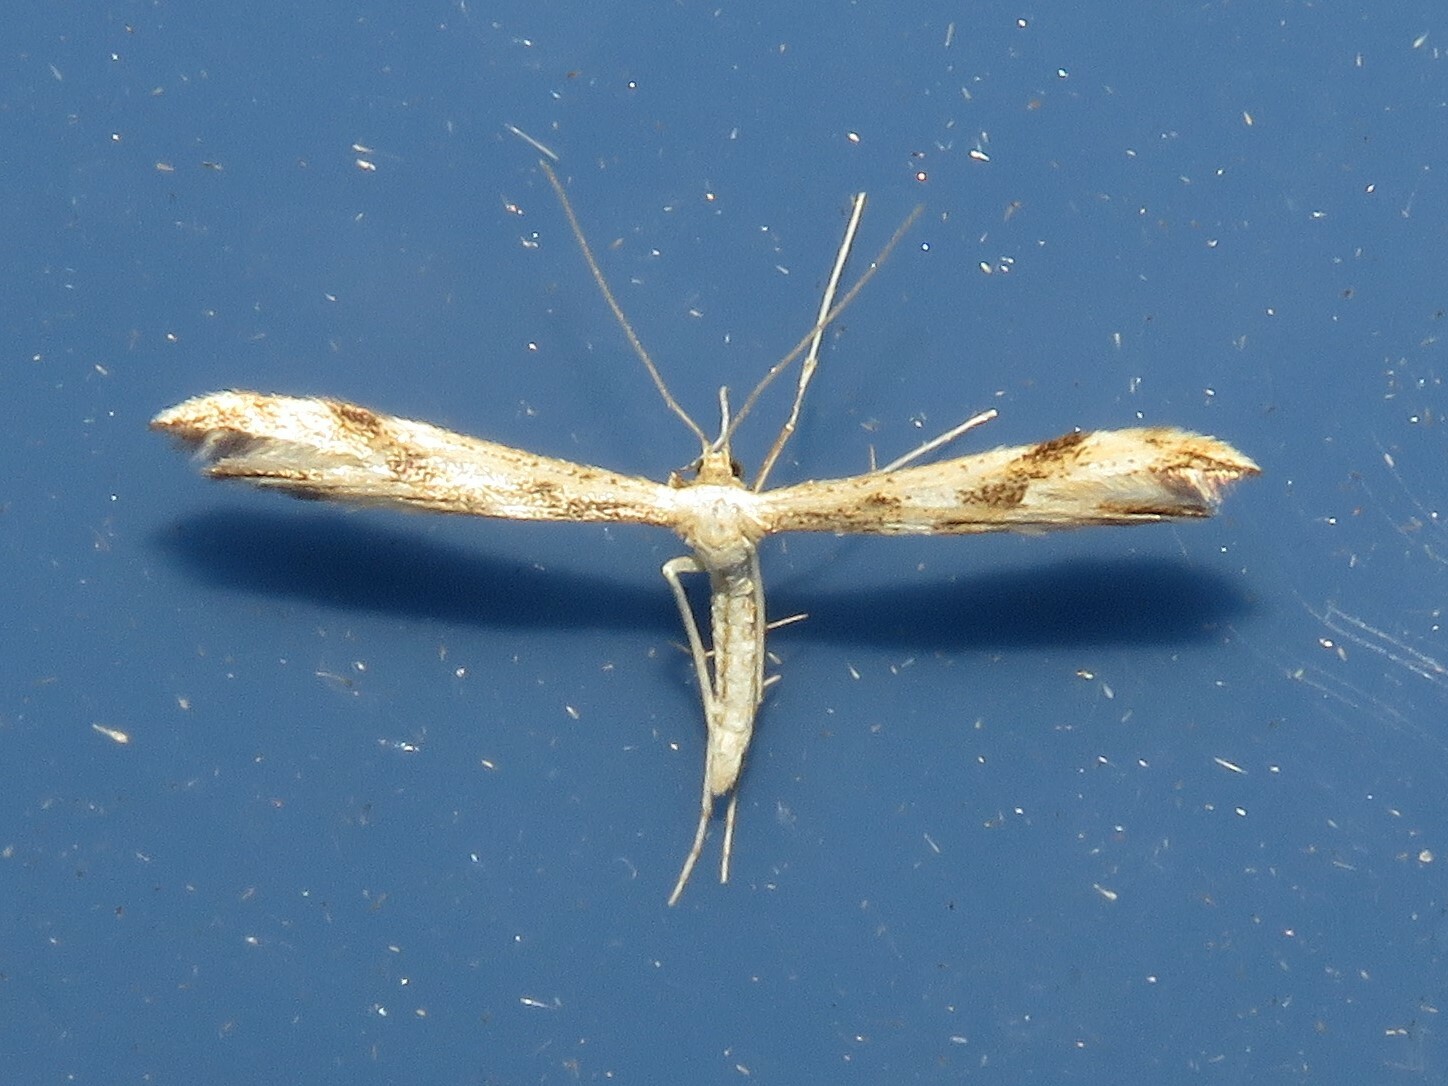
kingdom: Animalia
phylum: Arthropoda
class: Insecta
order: Lepidoptera
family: Pterophoridae
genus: Adaina
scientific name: Adaina montanus
